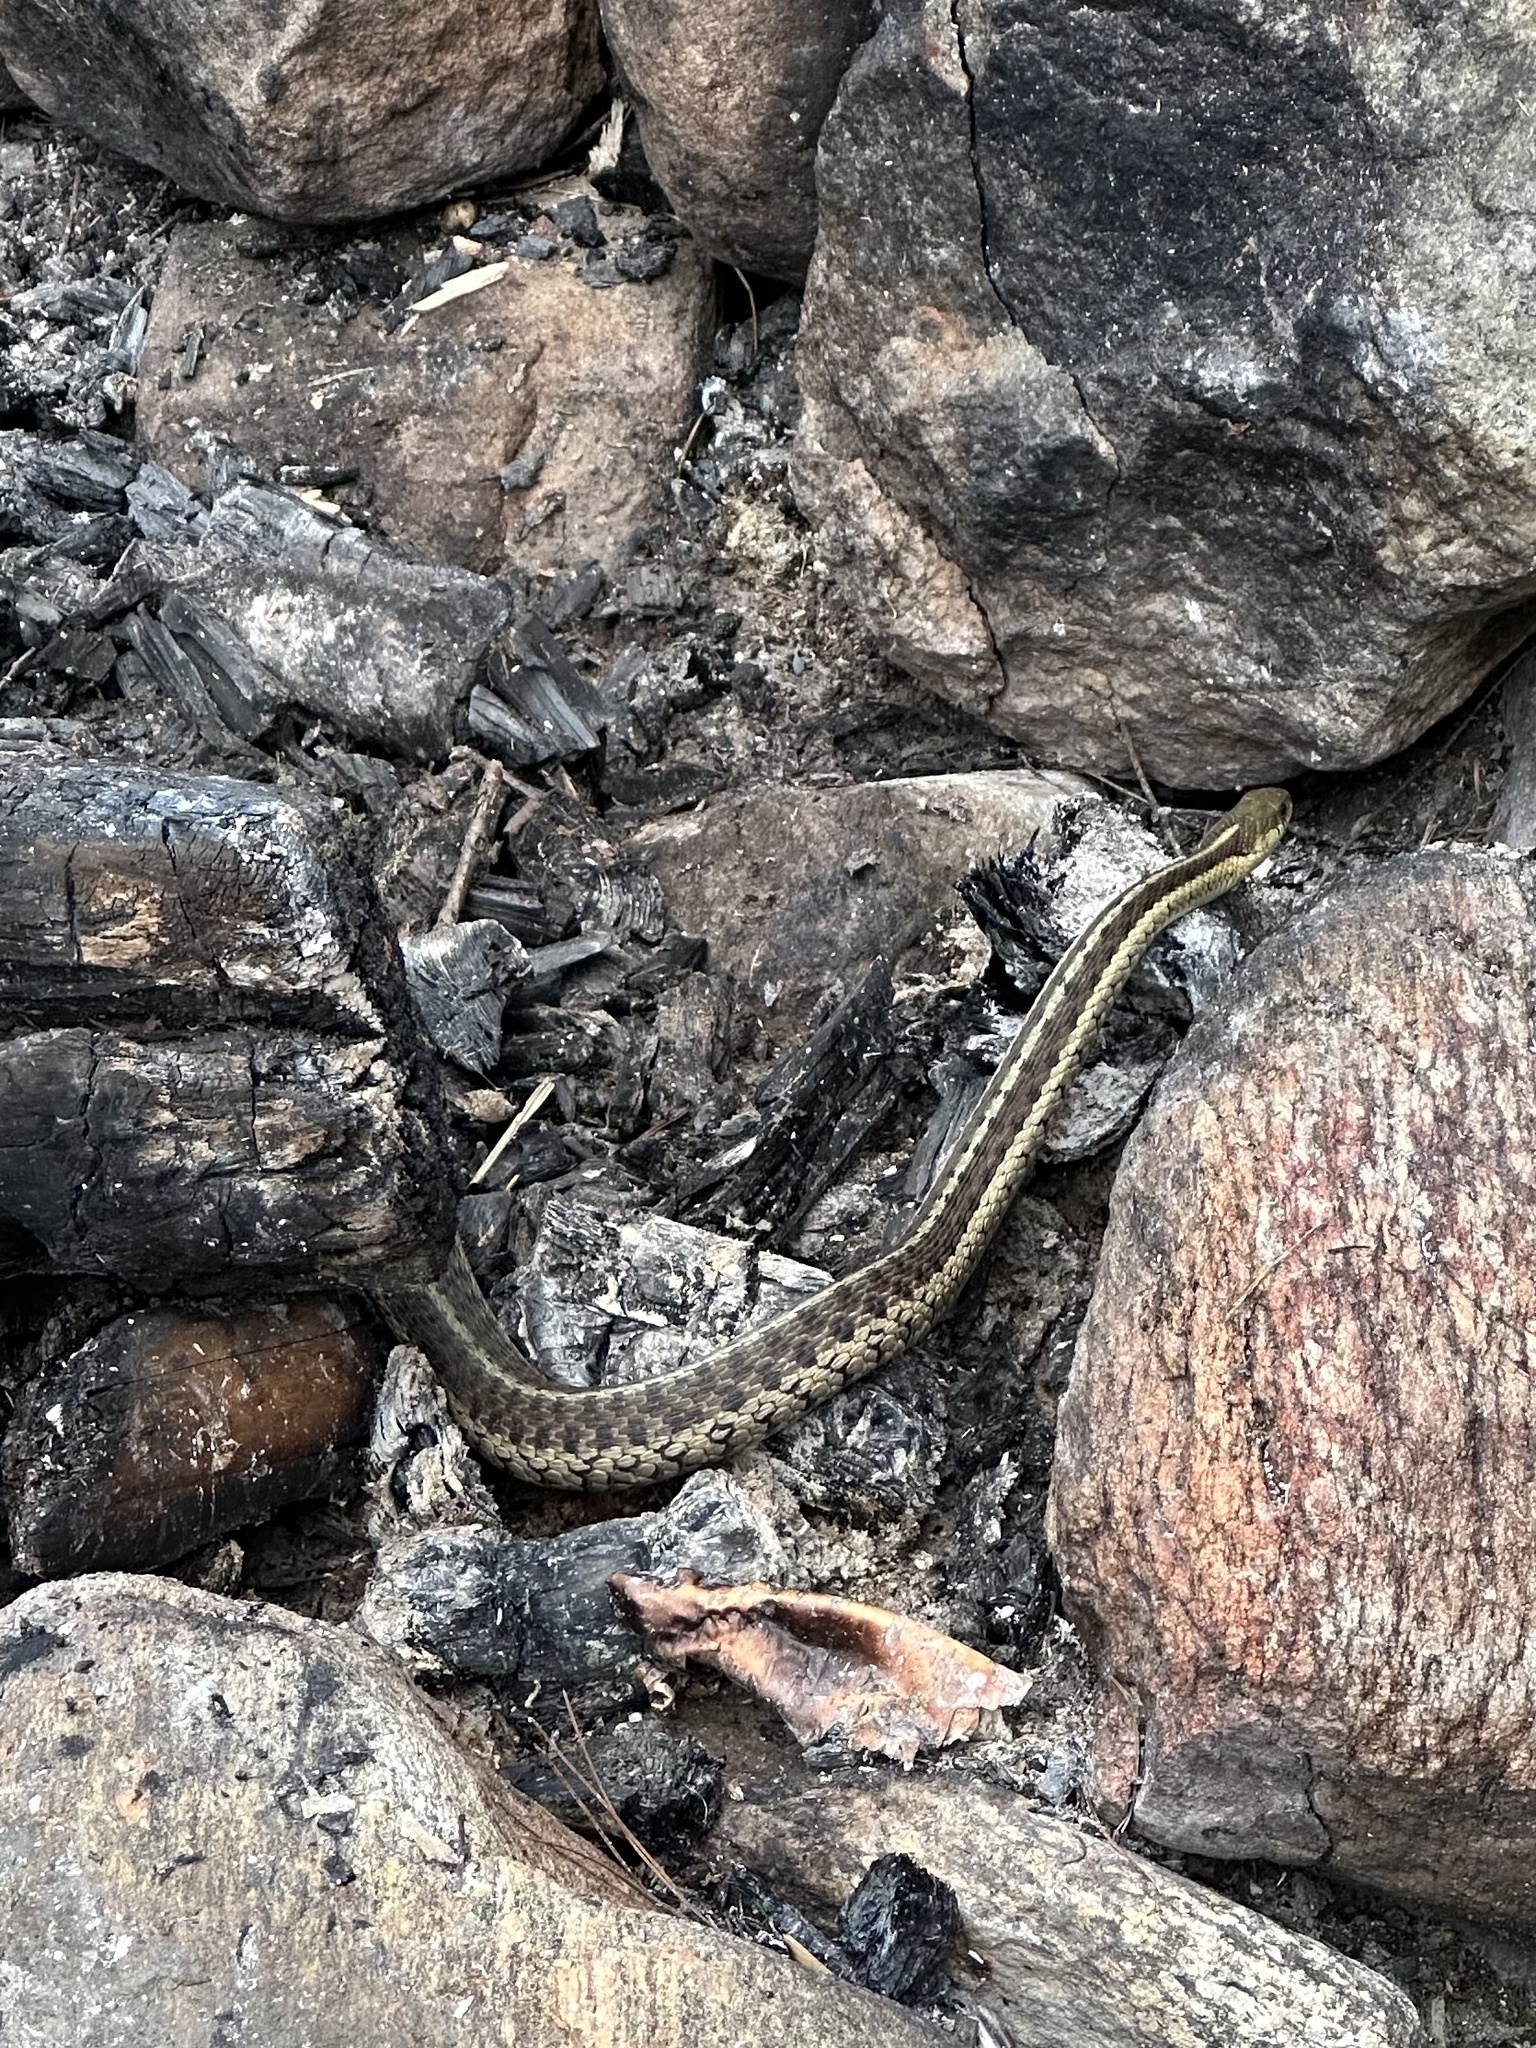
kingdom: Animalia
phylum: Chordata
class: Squamata
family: Colubridae
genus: Thamnophis
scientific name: Thamnophis sirtalis
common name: Common garter snake
